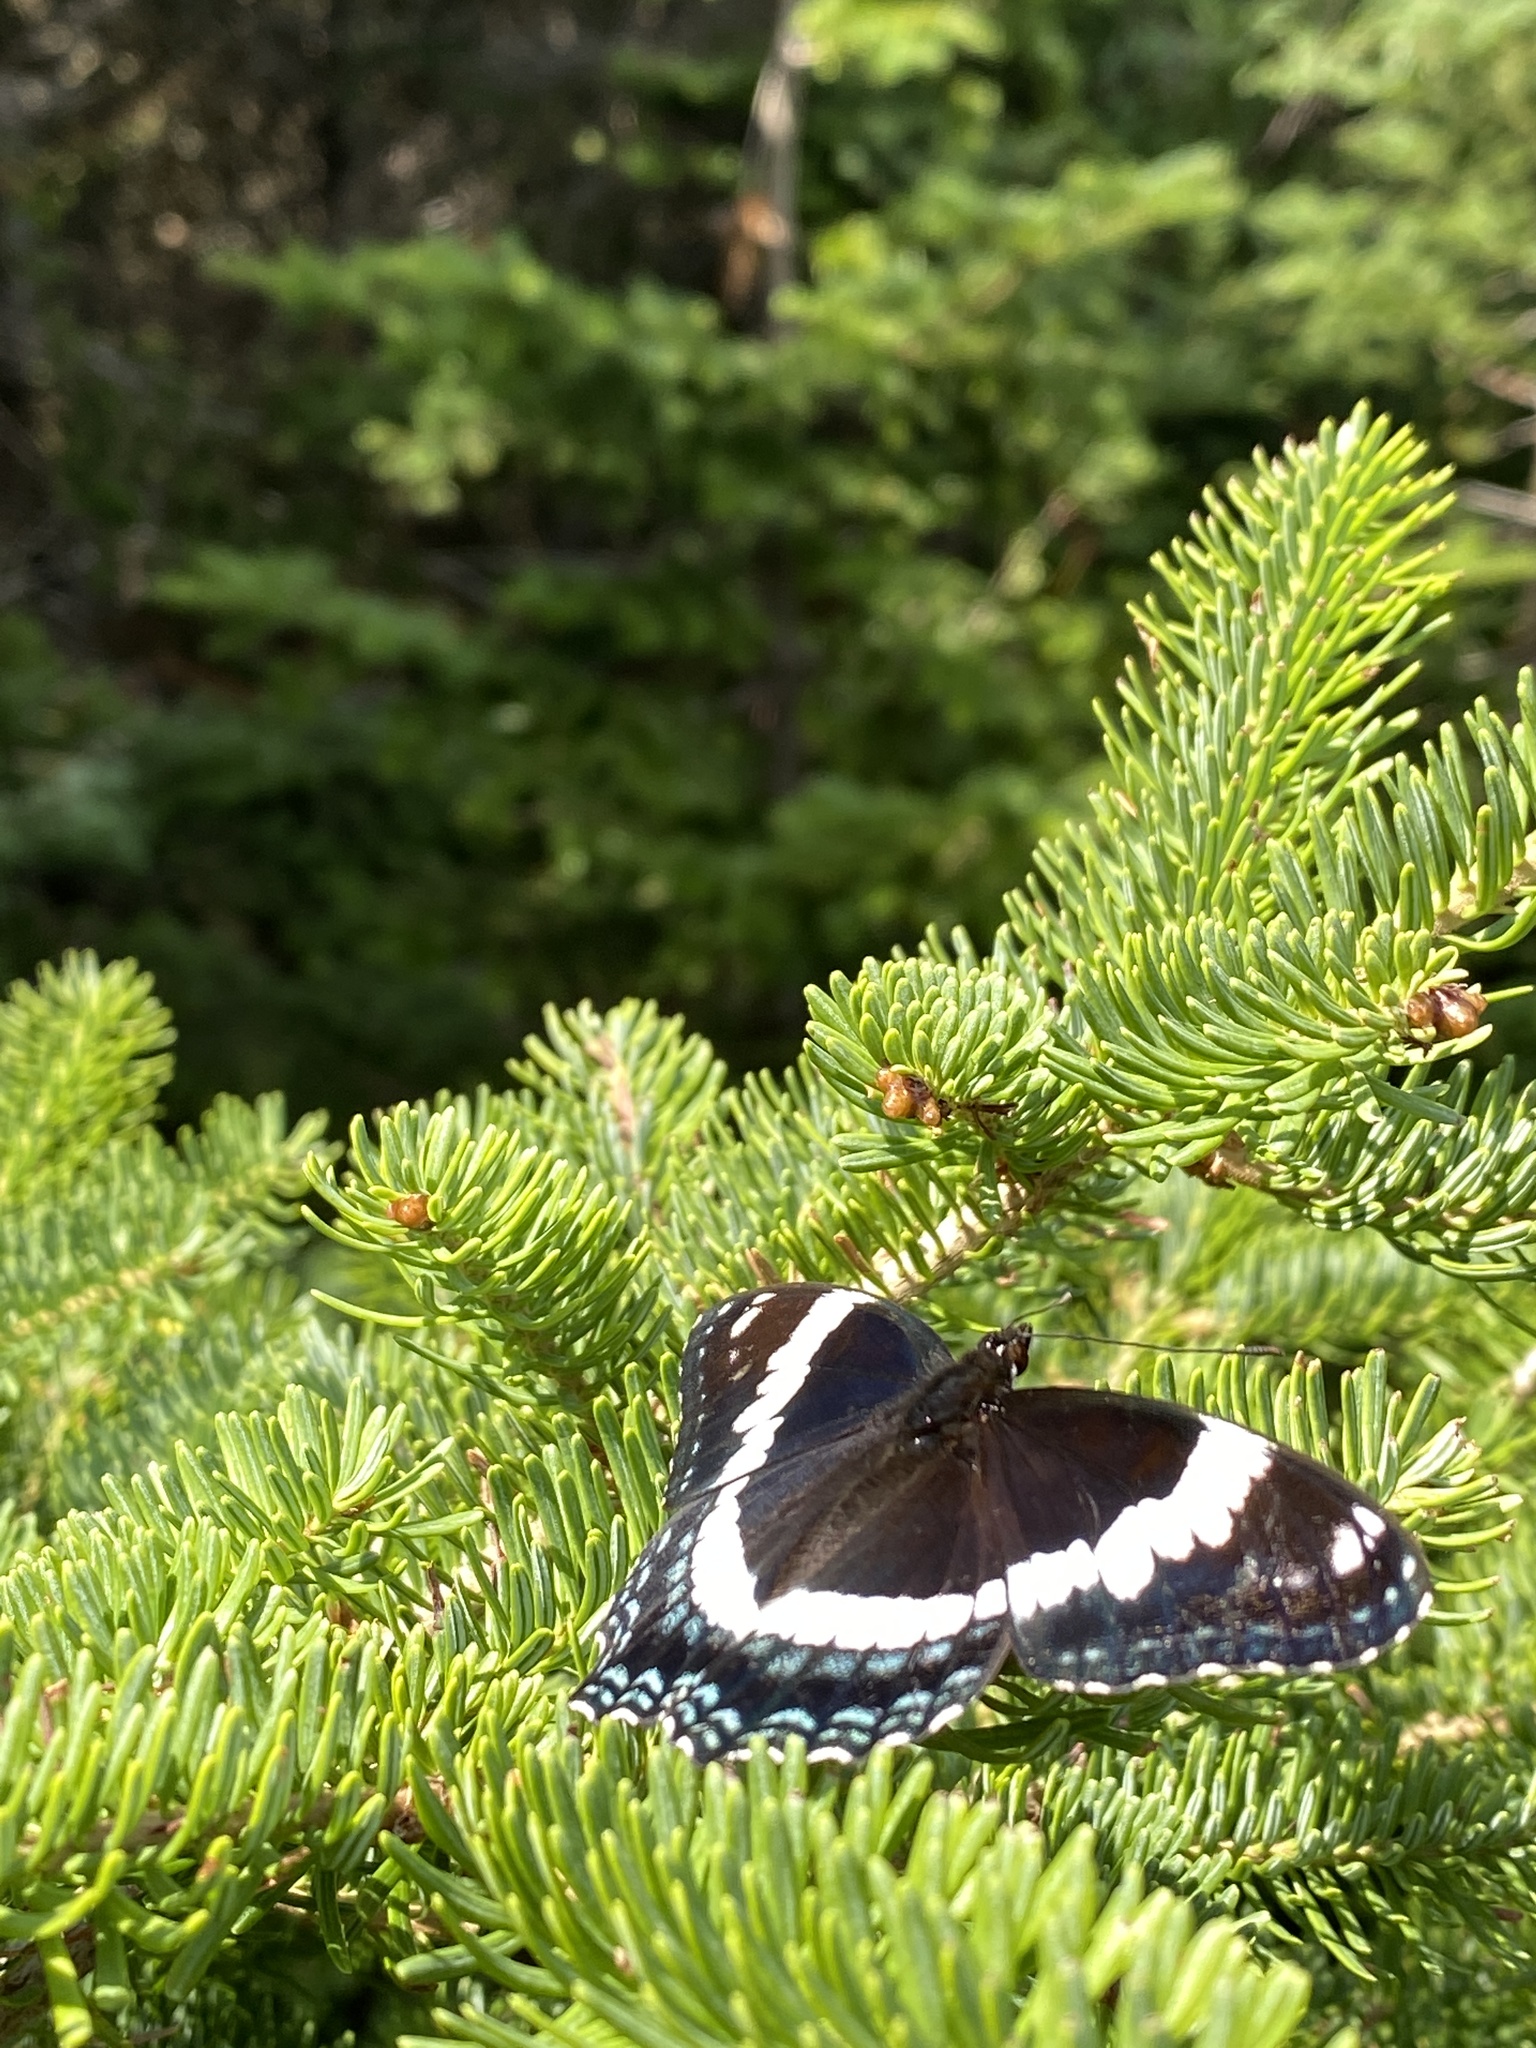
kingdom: Animalia
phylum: Arthropoda
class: Insecta
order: Lepidoptera
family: Nymphalidae
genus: Limenitis
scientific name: Limenitis arthemis
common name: Red-spotted admiral
